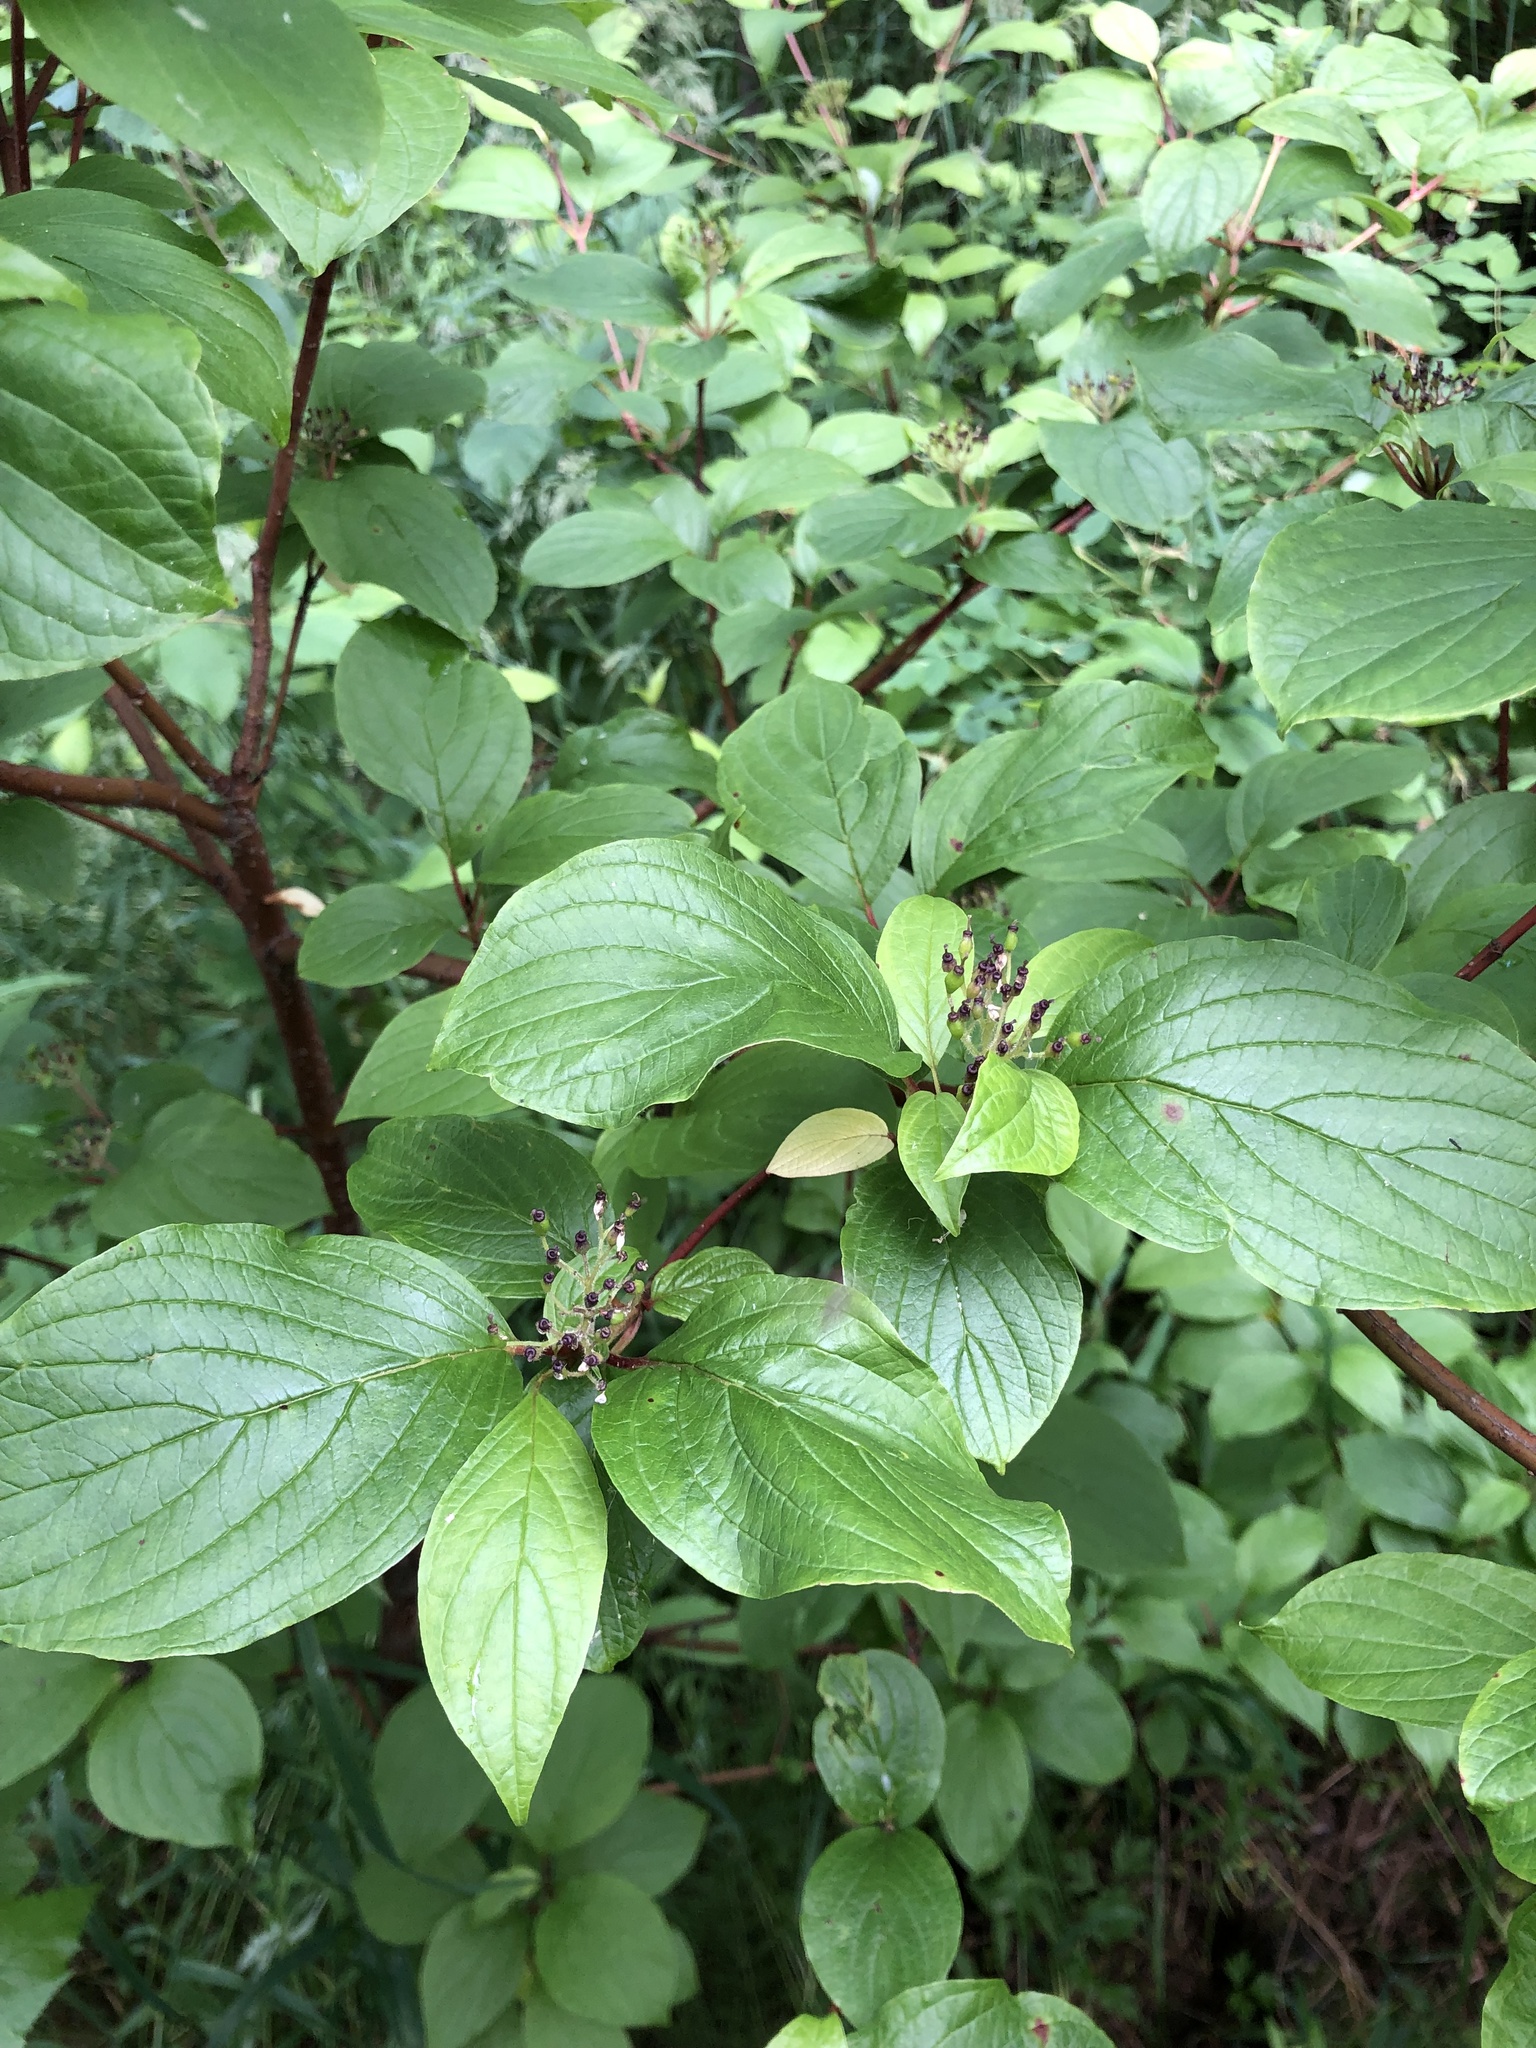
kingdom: Plantae
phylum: Tracheophyta
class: Magnoliopsida
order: Cornales
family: Cornaceae
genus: Cornus
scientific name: Cornus alba
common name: White dogwood
